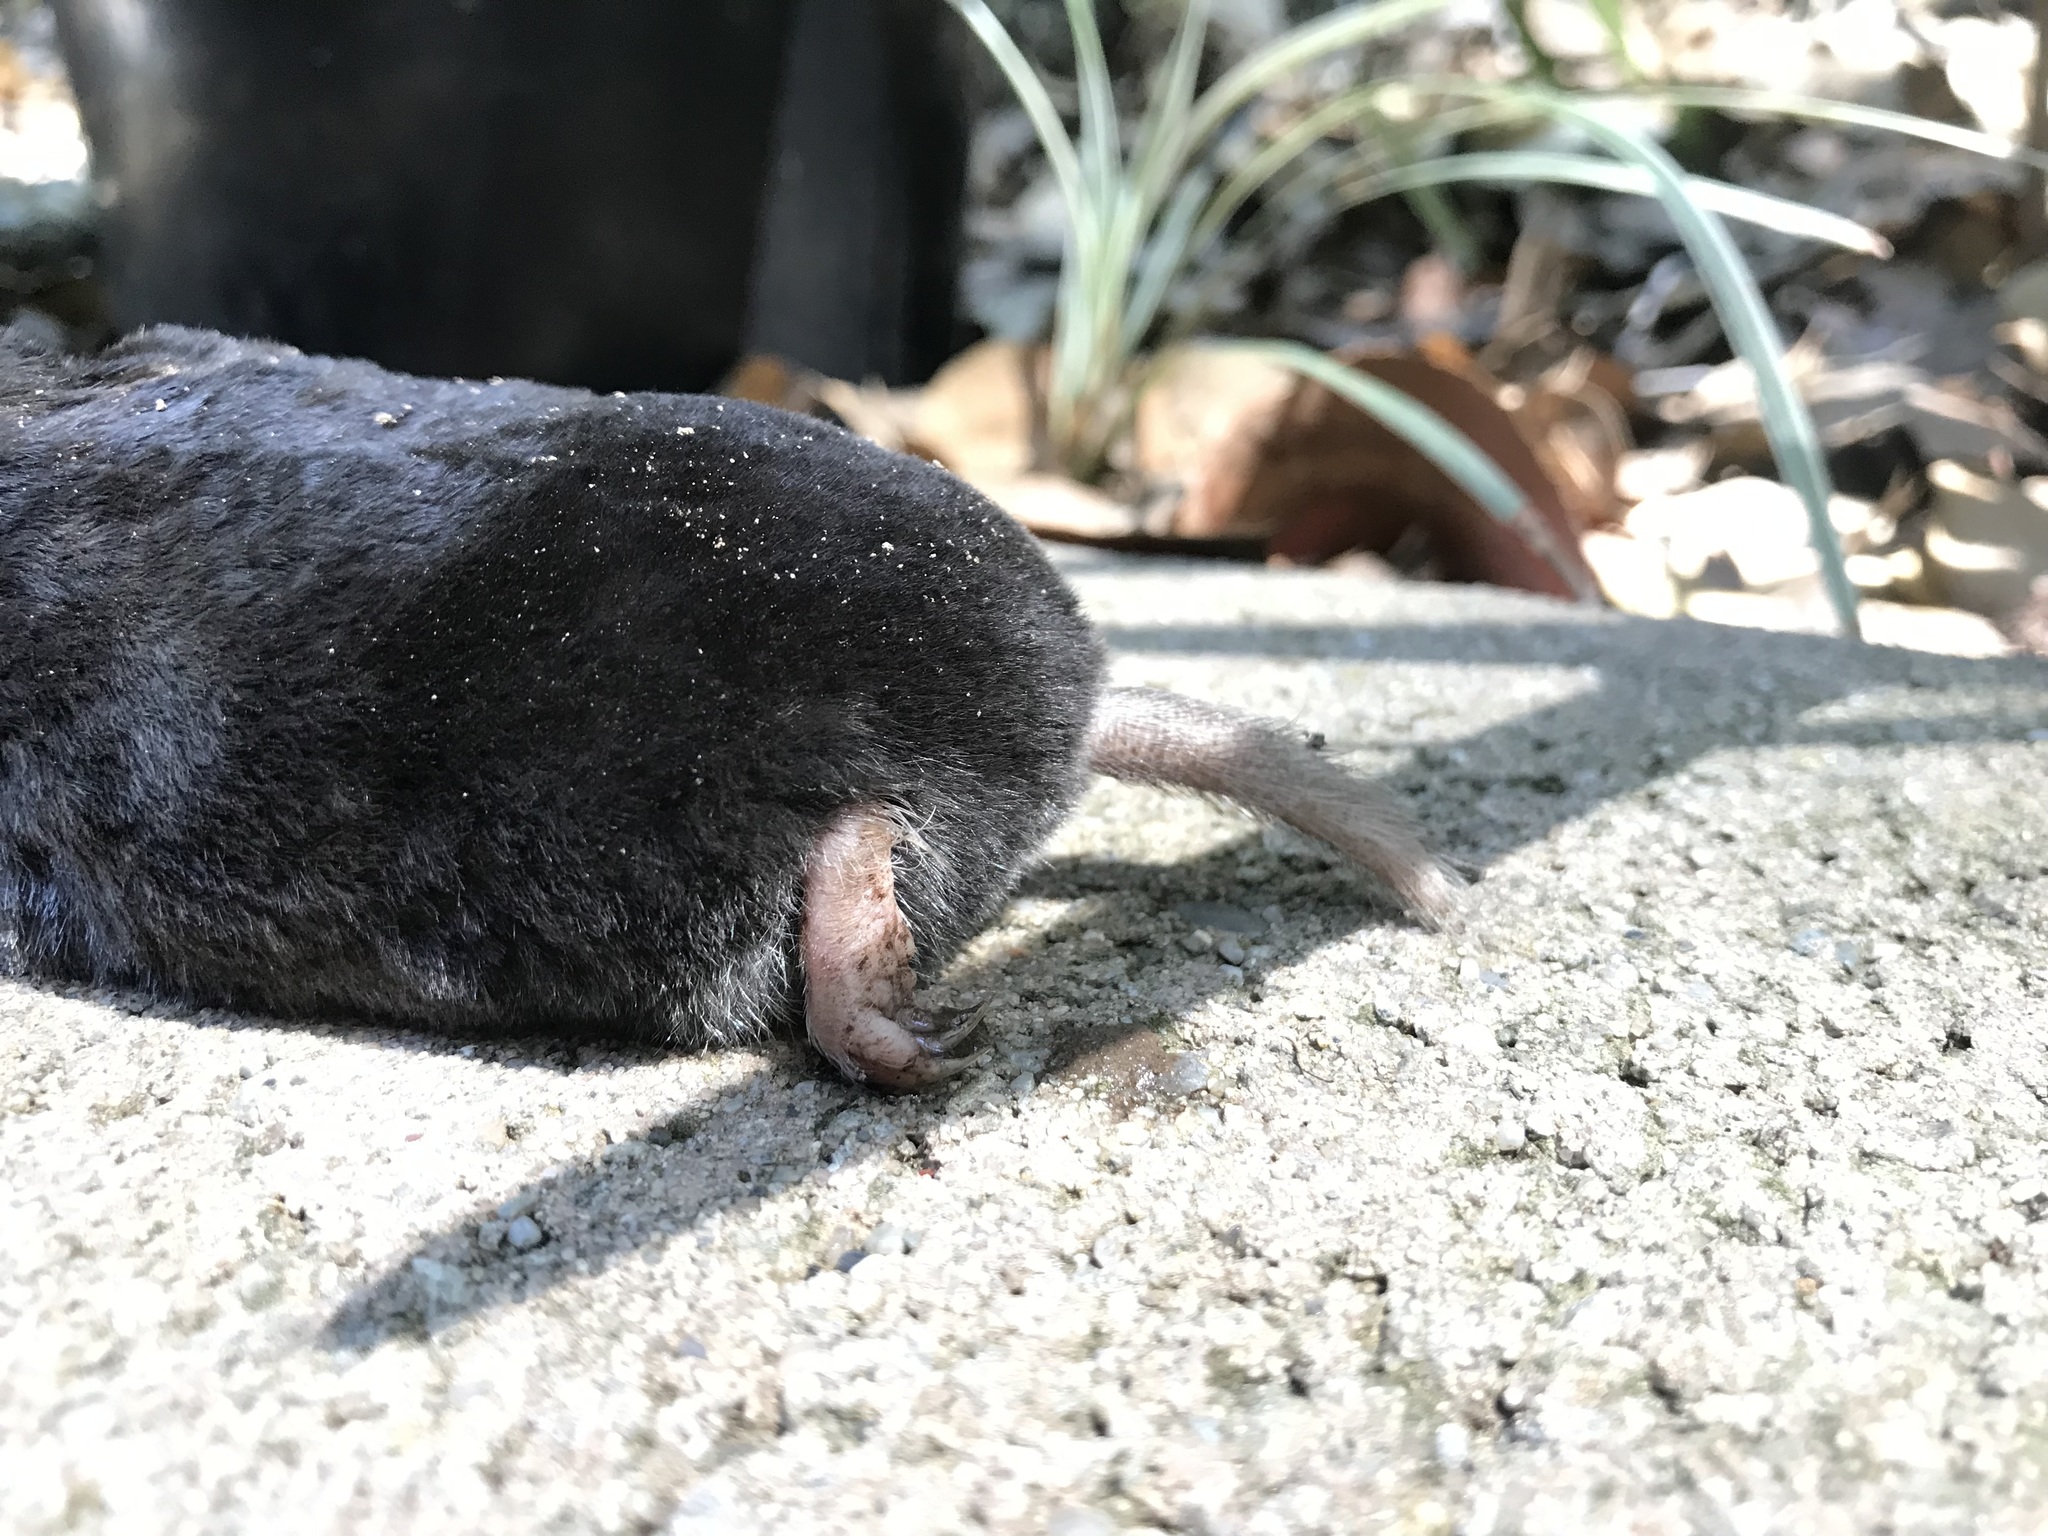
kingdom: Animalia
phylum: Chordata
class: Mammalia
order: Soricomorpha
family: Talpidae
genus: Scapanus
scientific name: Scapanus latimanus
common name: Broad-footed mole
